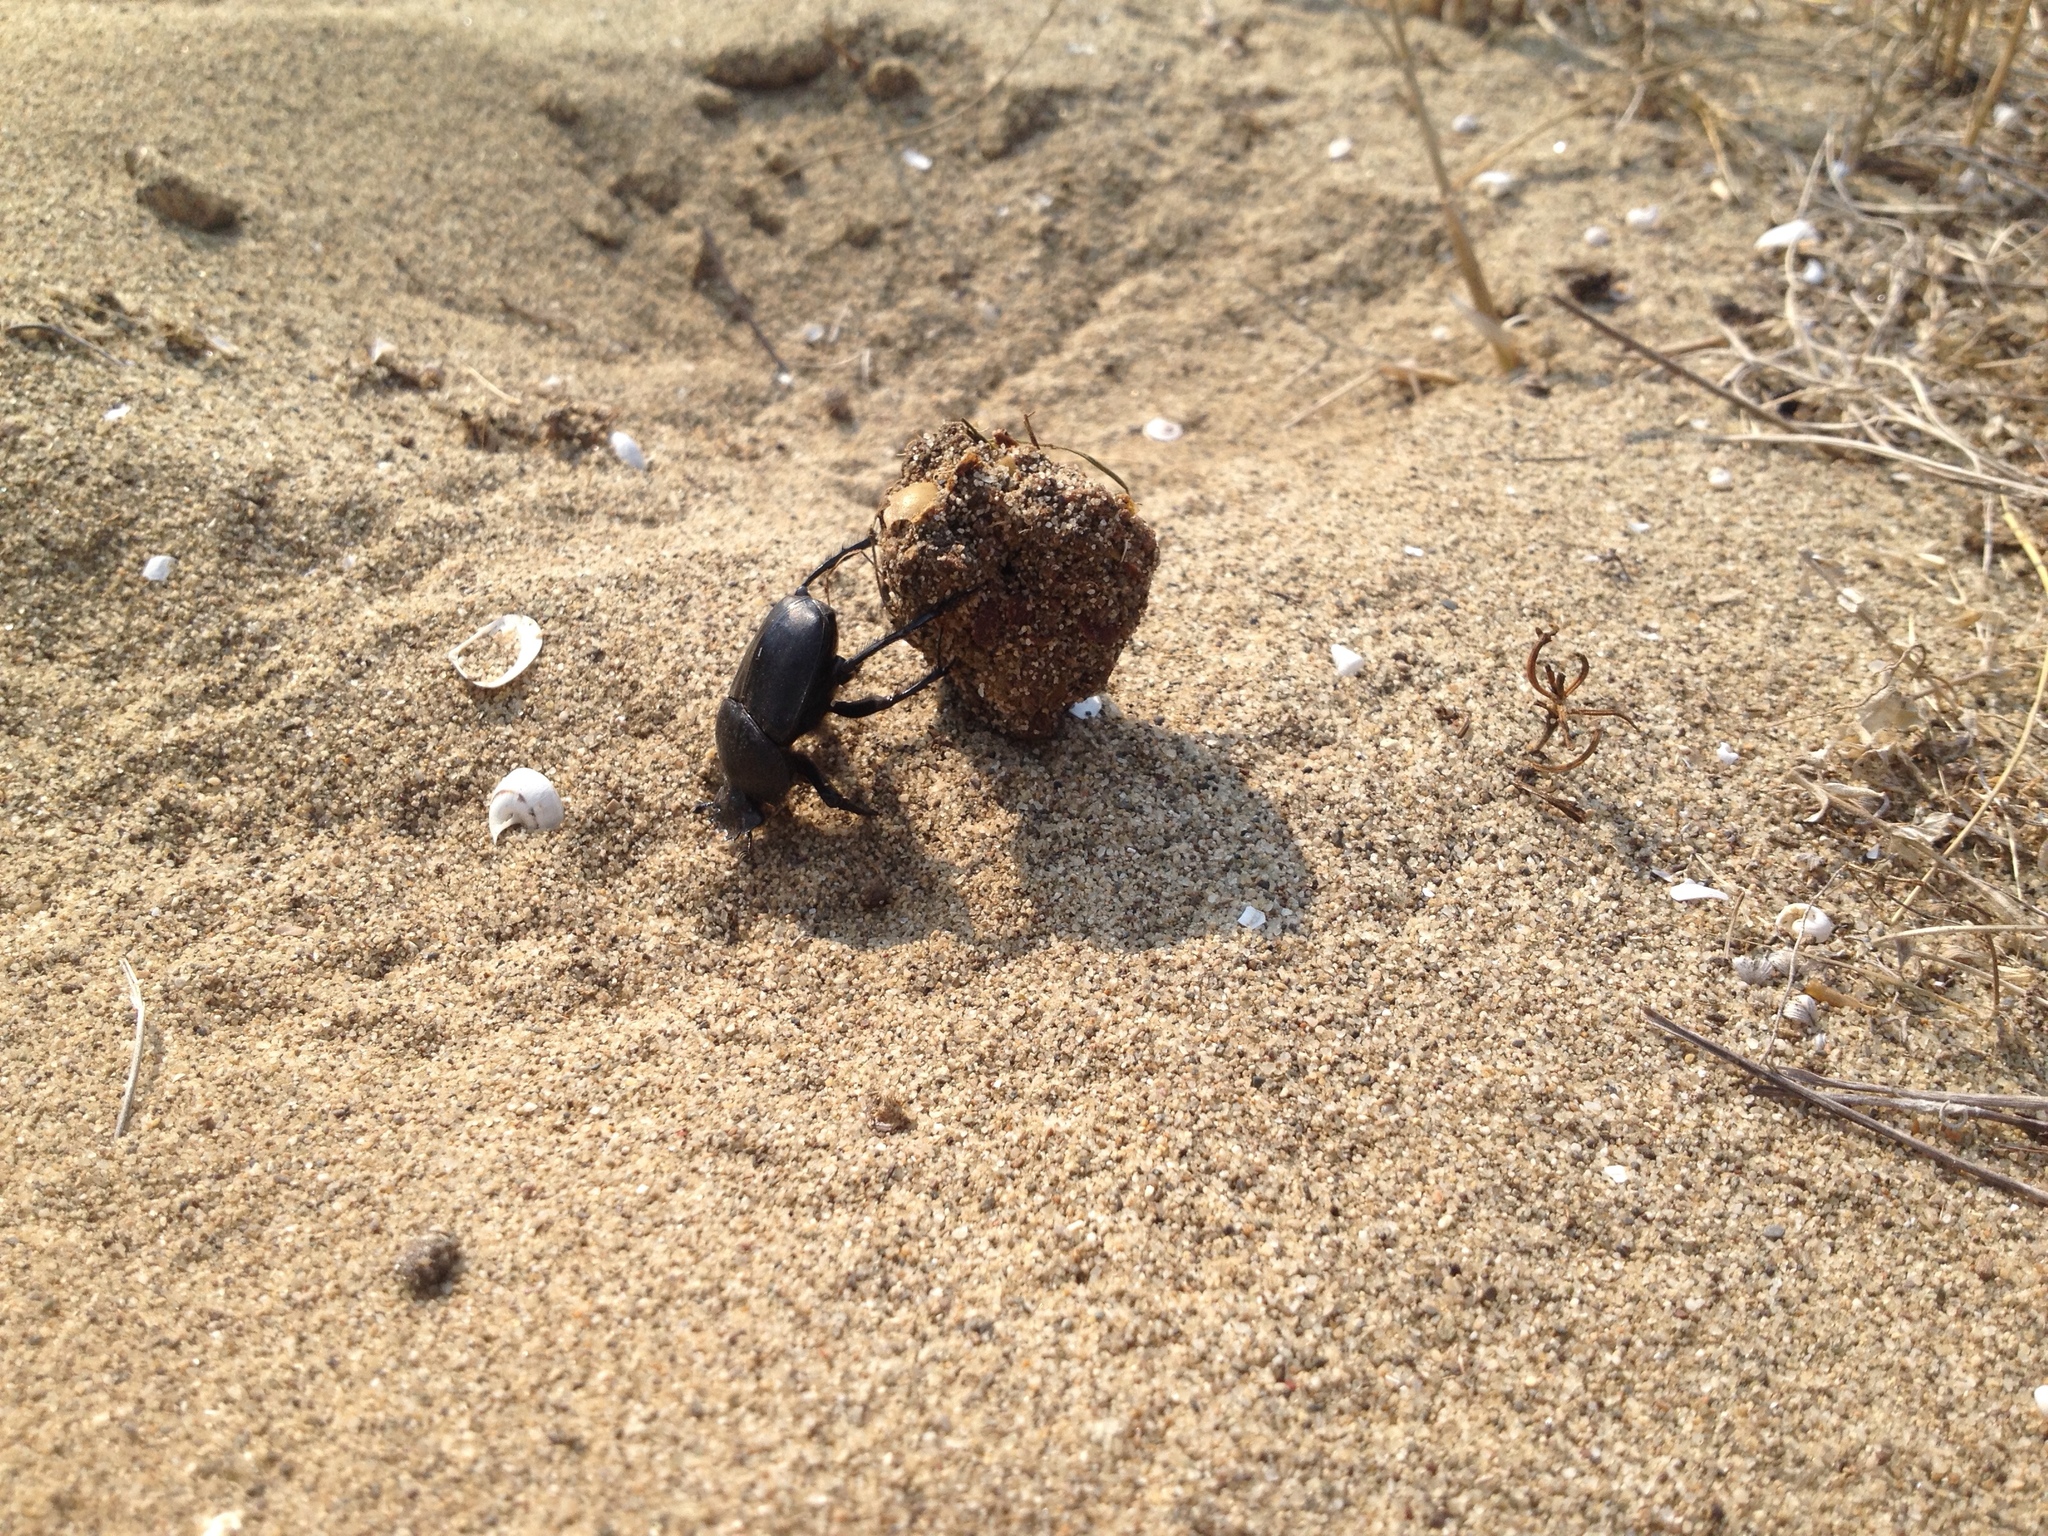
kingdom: Animalia
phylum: Arthropoda
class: Insecta
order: Coleoptera
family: Scarabaeidae
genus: Ateuchetus
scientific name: Ateuchetus semipunctatus
